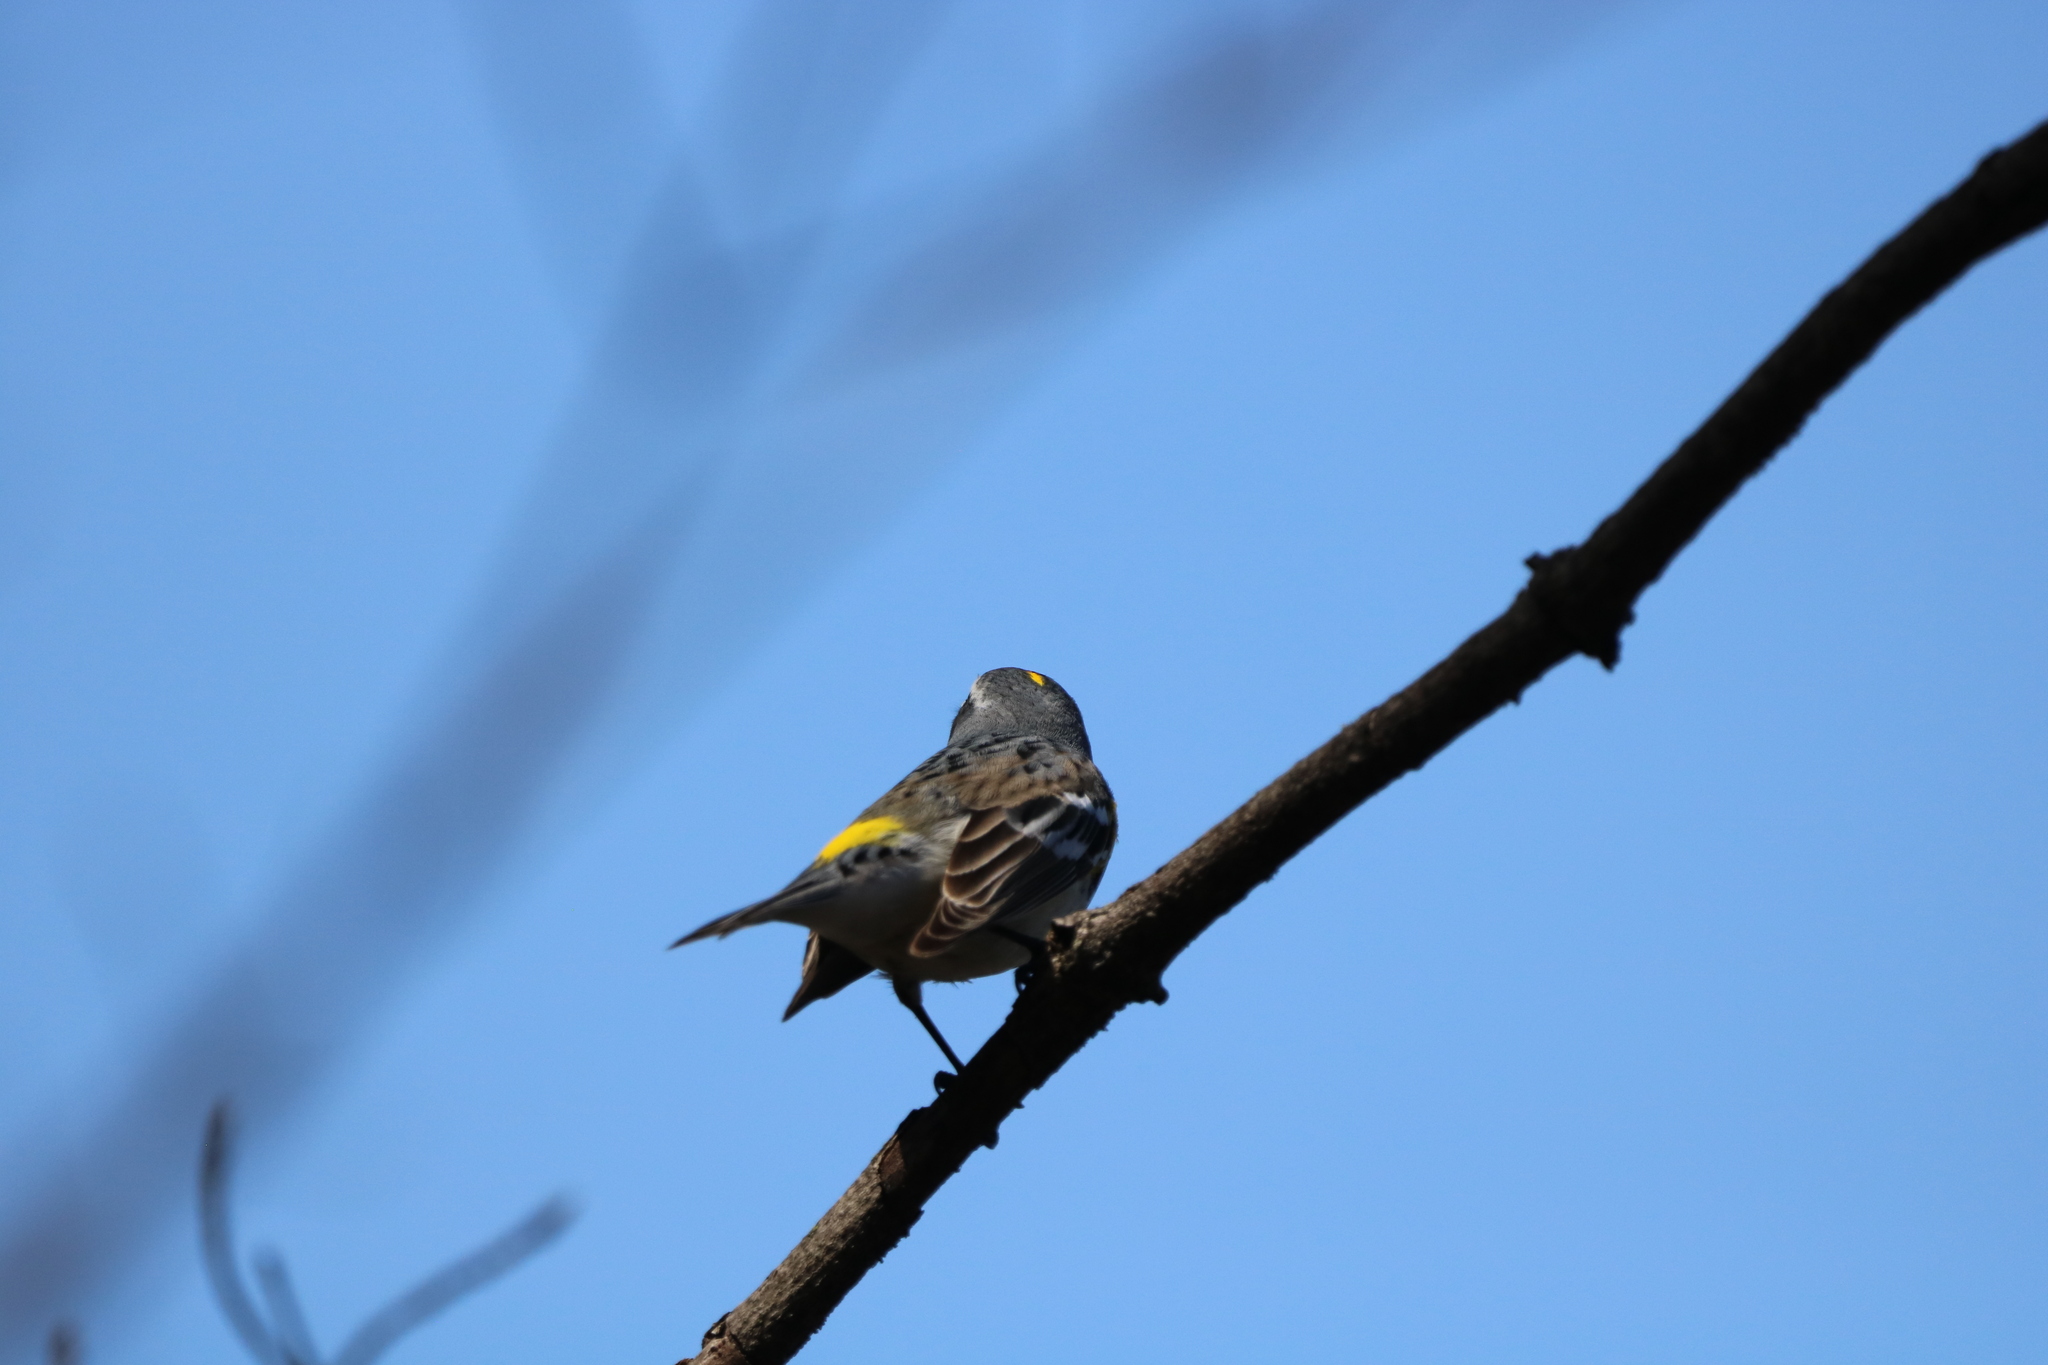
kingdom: Animalia
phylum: Chordata
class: Aves
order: Passeriformes
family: Parulidae
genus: Setophaga
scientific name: Setophaga coronata
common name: Myrtle warbler
